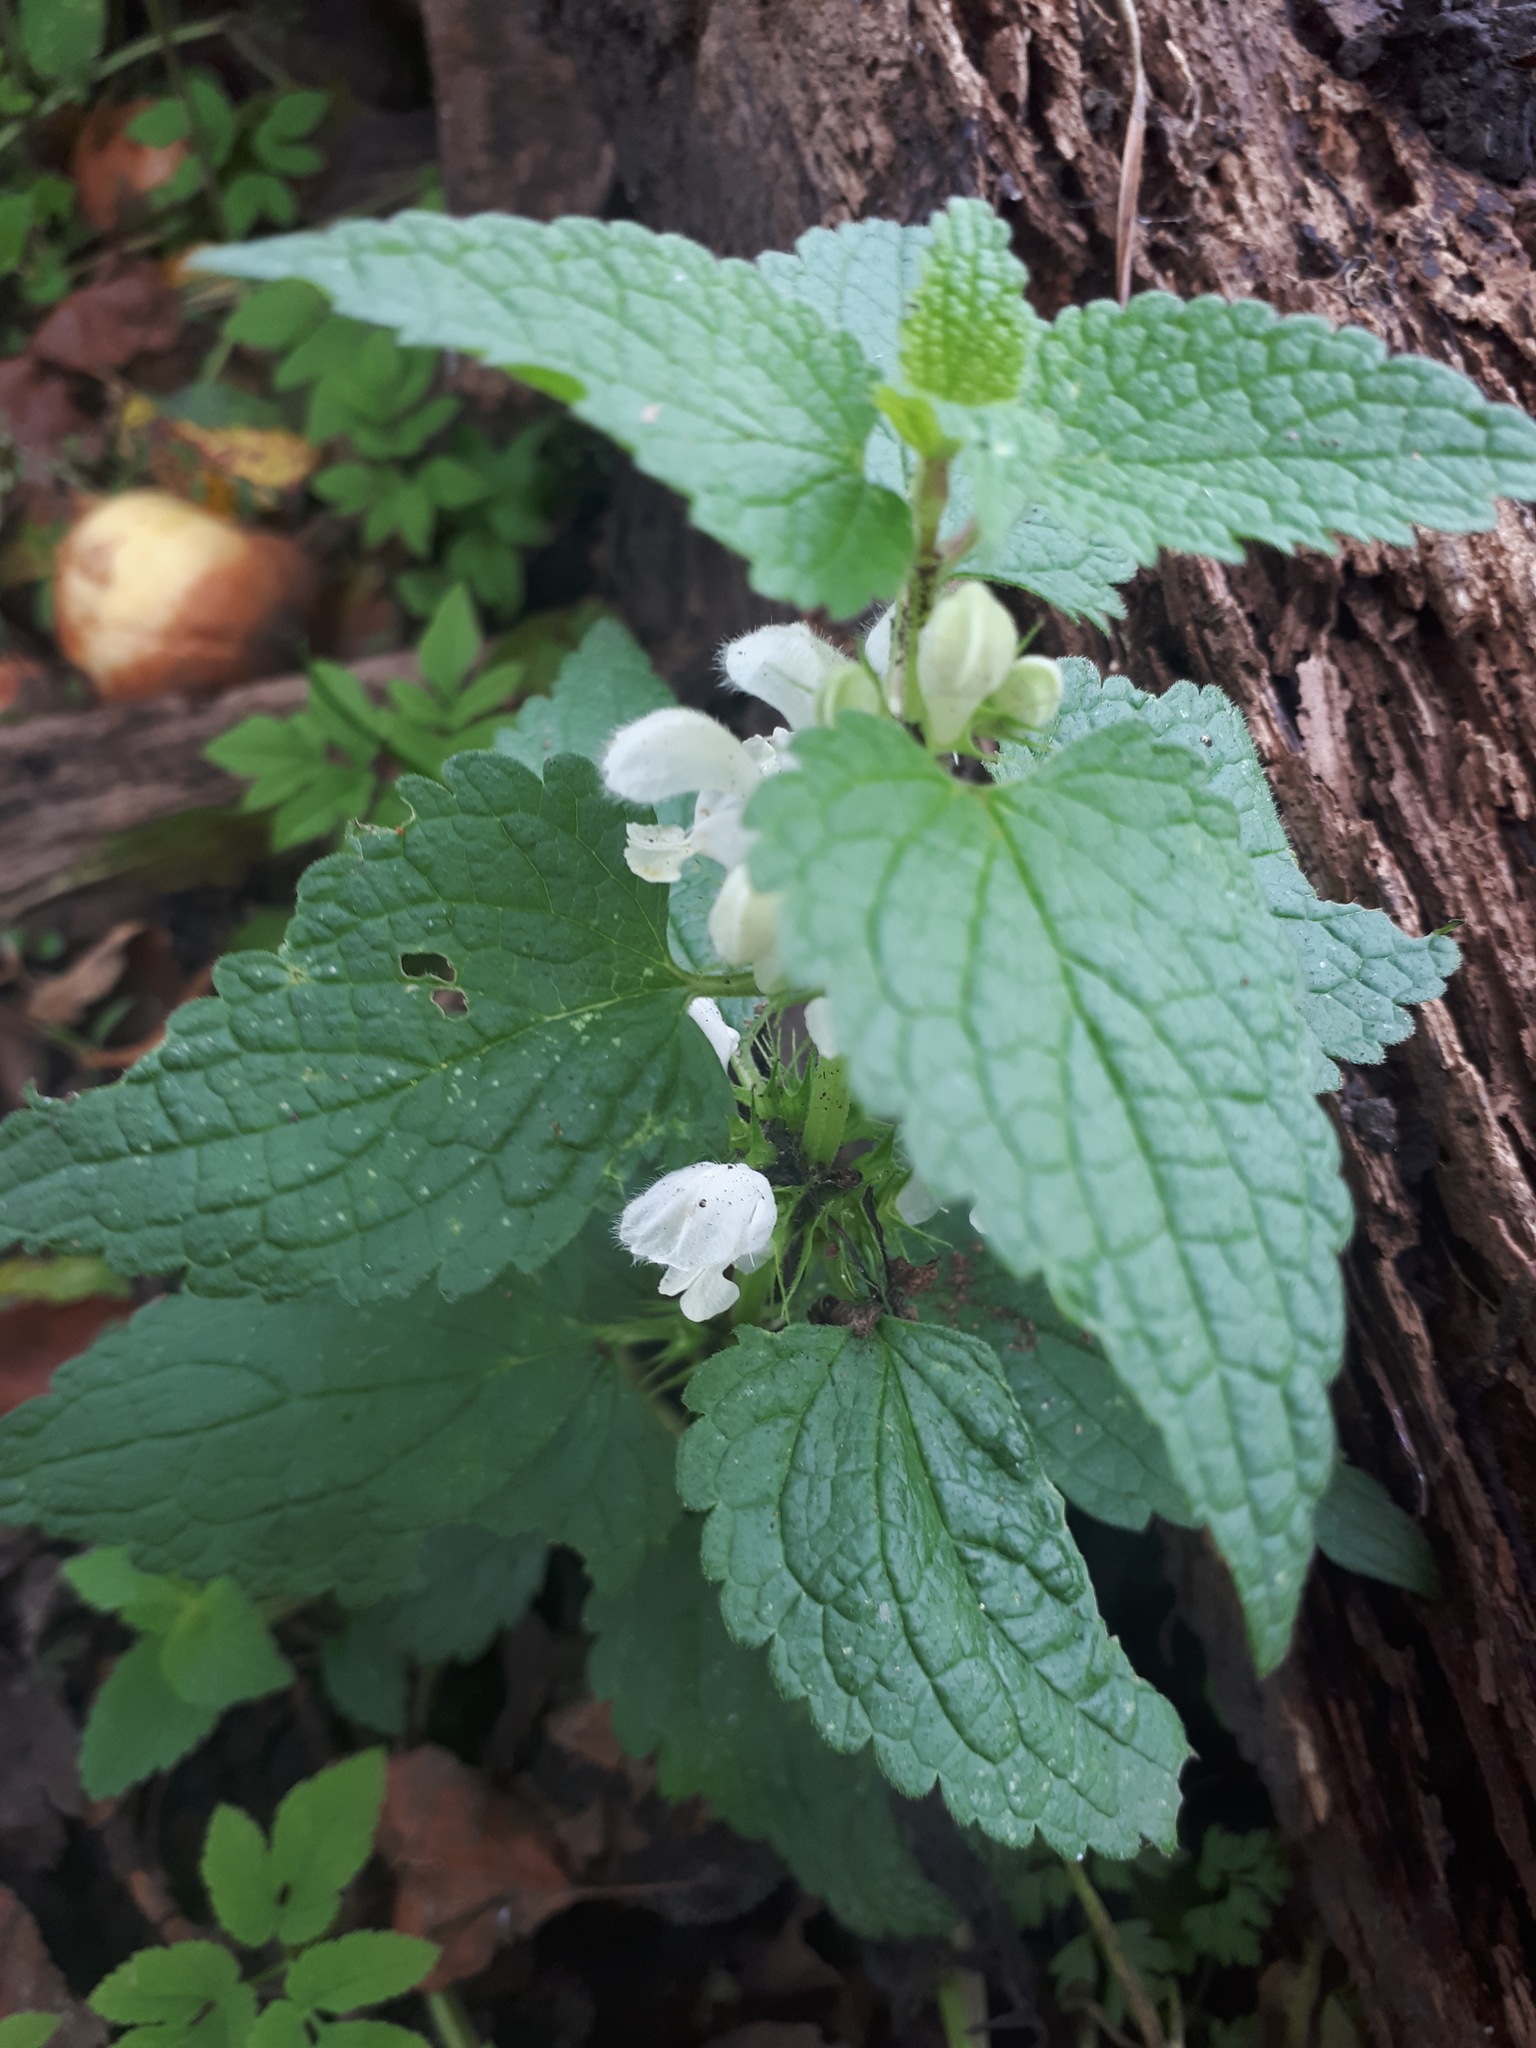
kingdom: Plantae
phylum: Tracheophyta
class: Magnoliopsida
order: Lamiales
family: Lamiaceae
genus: Lamium
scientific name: Lamium album
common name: White dead-nettle
